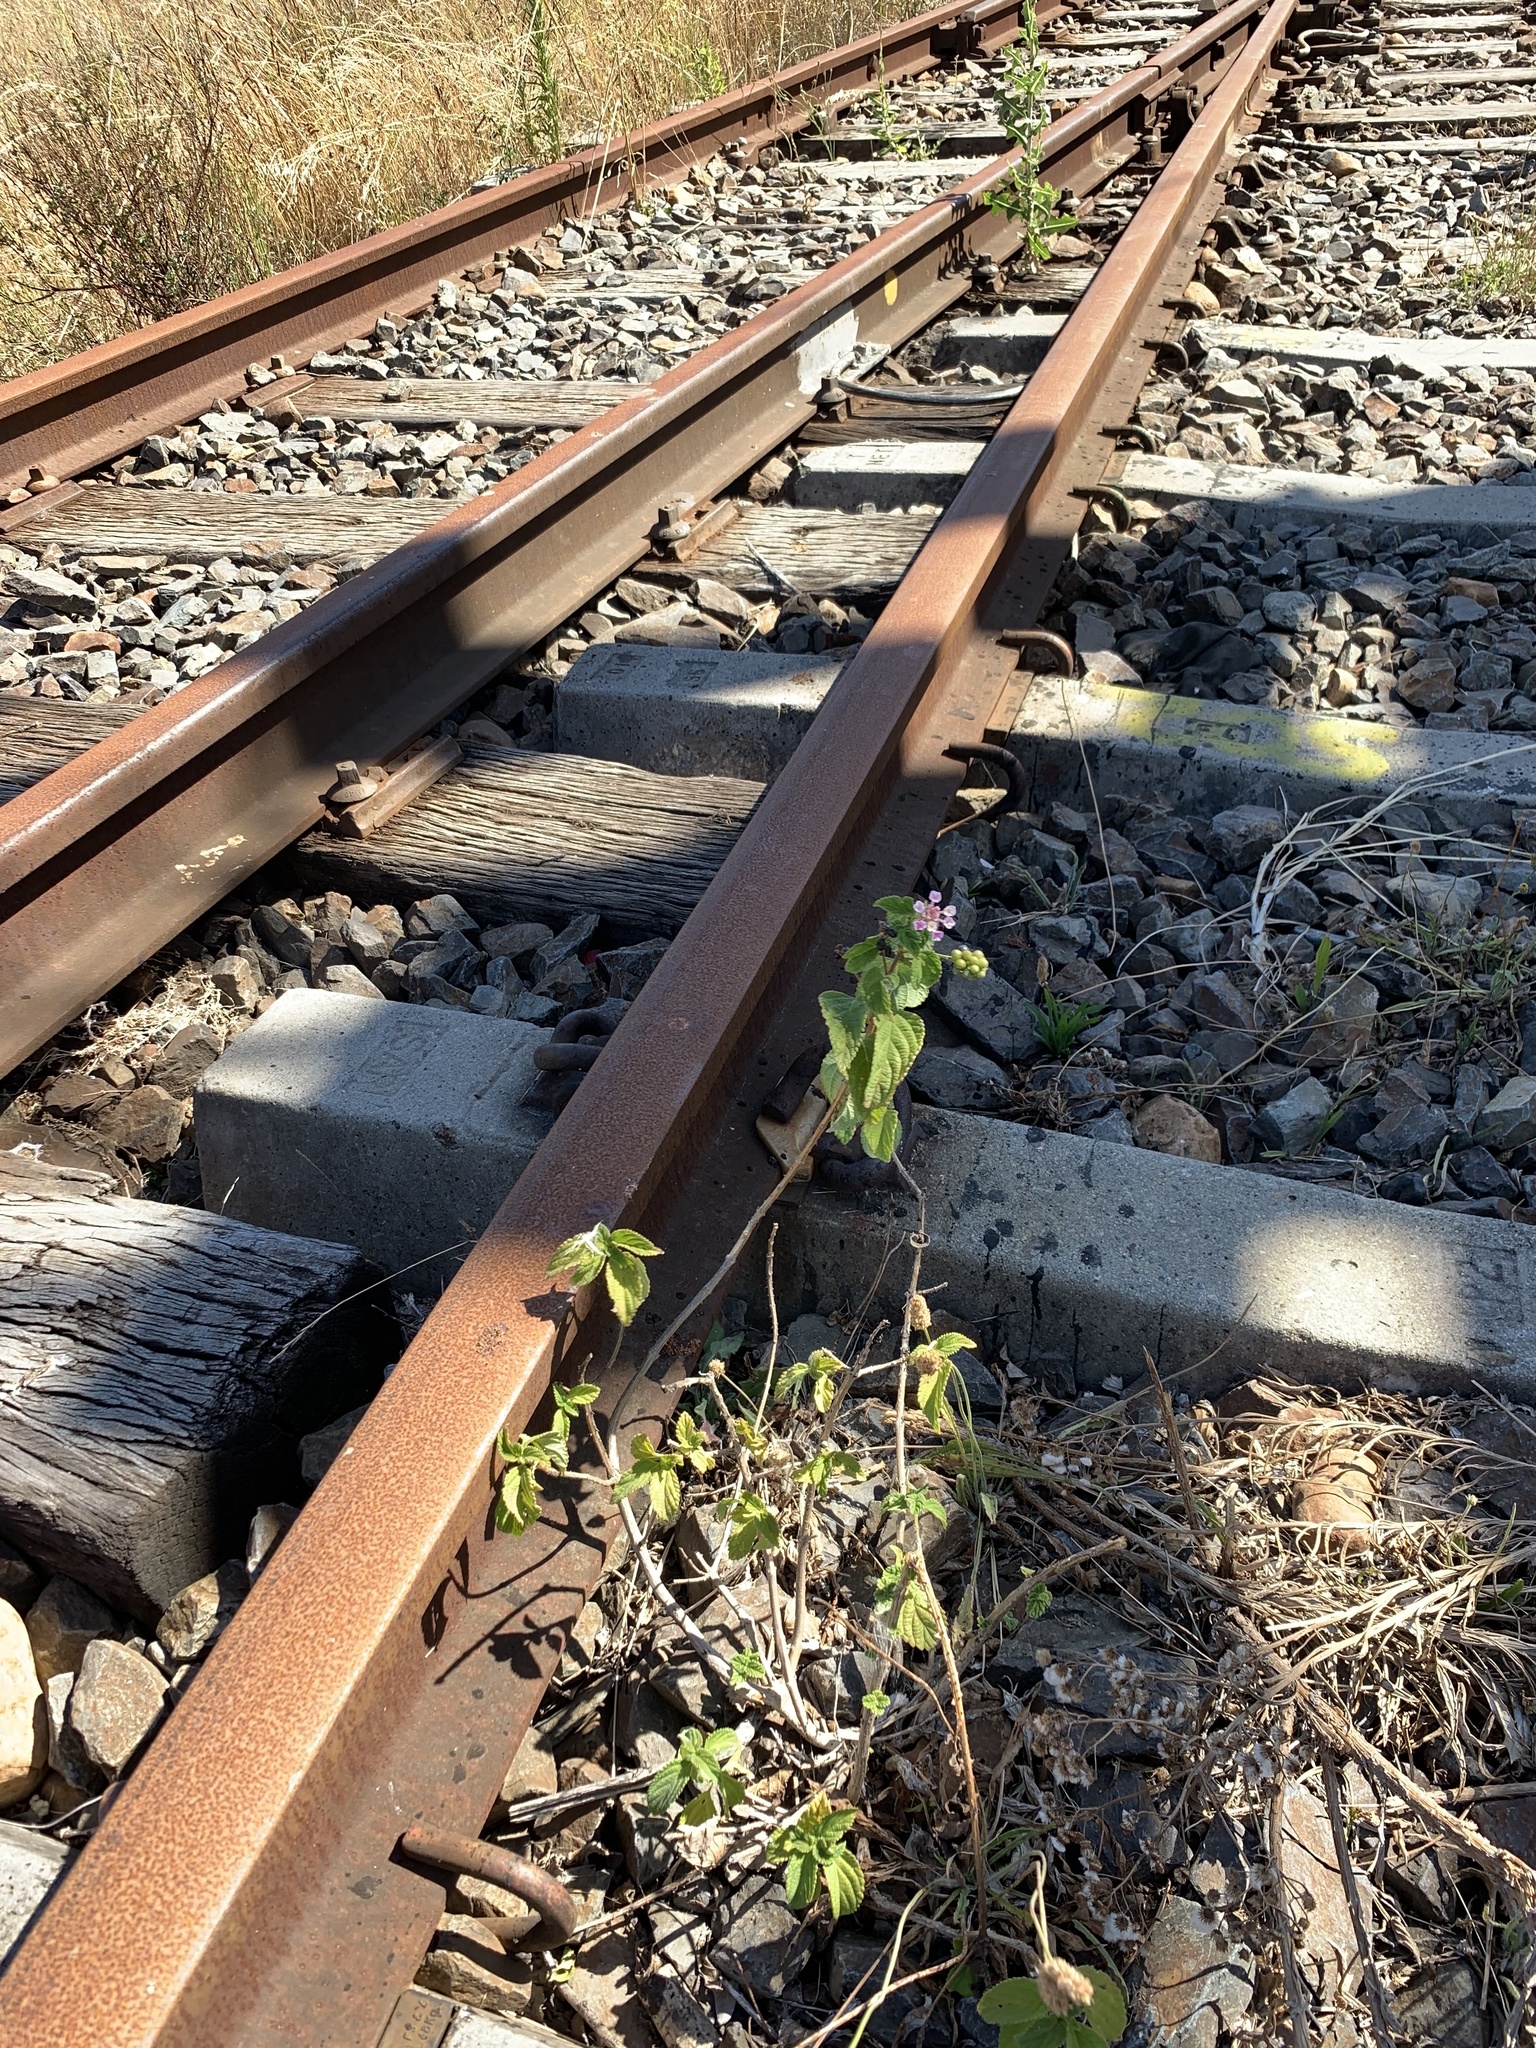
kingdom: Plantae
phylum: Tracheophyta
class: Magnoliopsida
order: Lamiales
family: Verbenaceae
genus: Lantana
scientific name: Lantana camara
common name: Lantana
